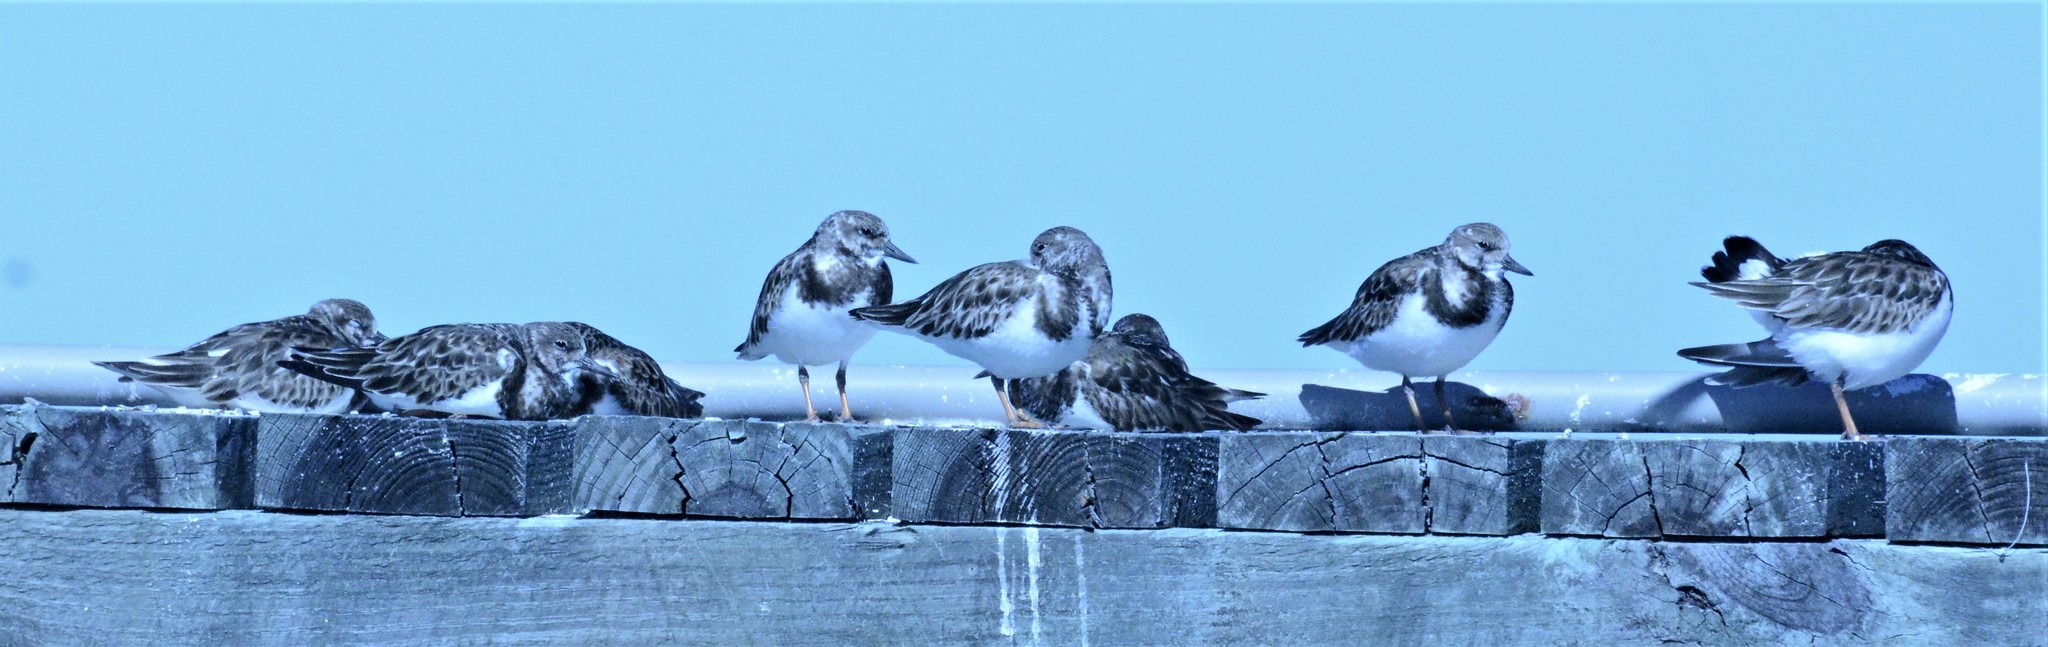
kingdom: Animalia
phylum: Chordata
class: Aves
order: Charadriiformes
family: Scolopacidae
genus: Arenaria
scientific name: Arenaria interpres
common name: Ruddy turnstone
